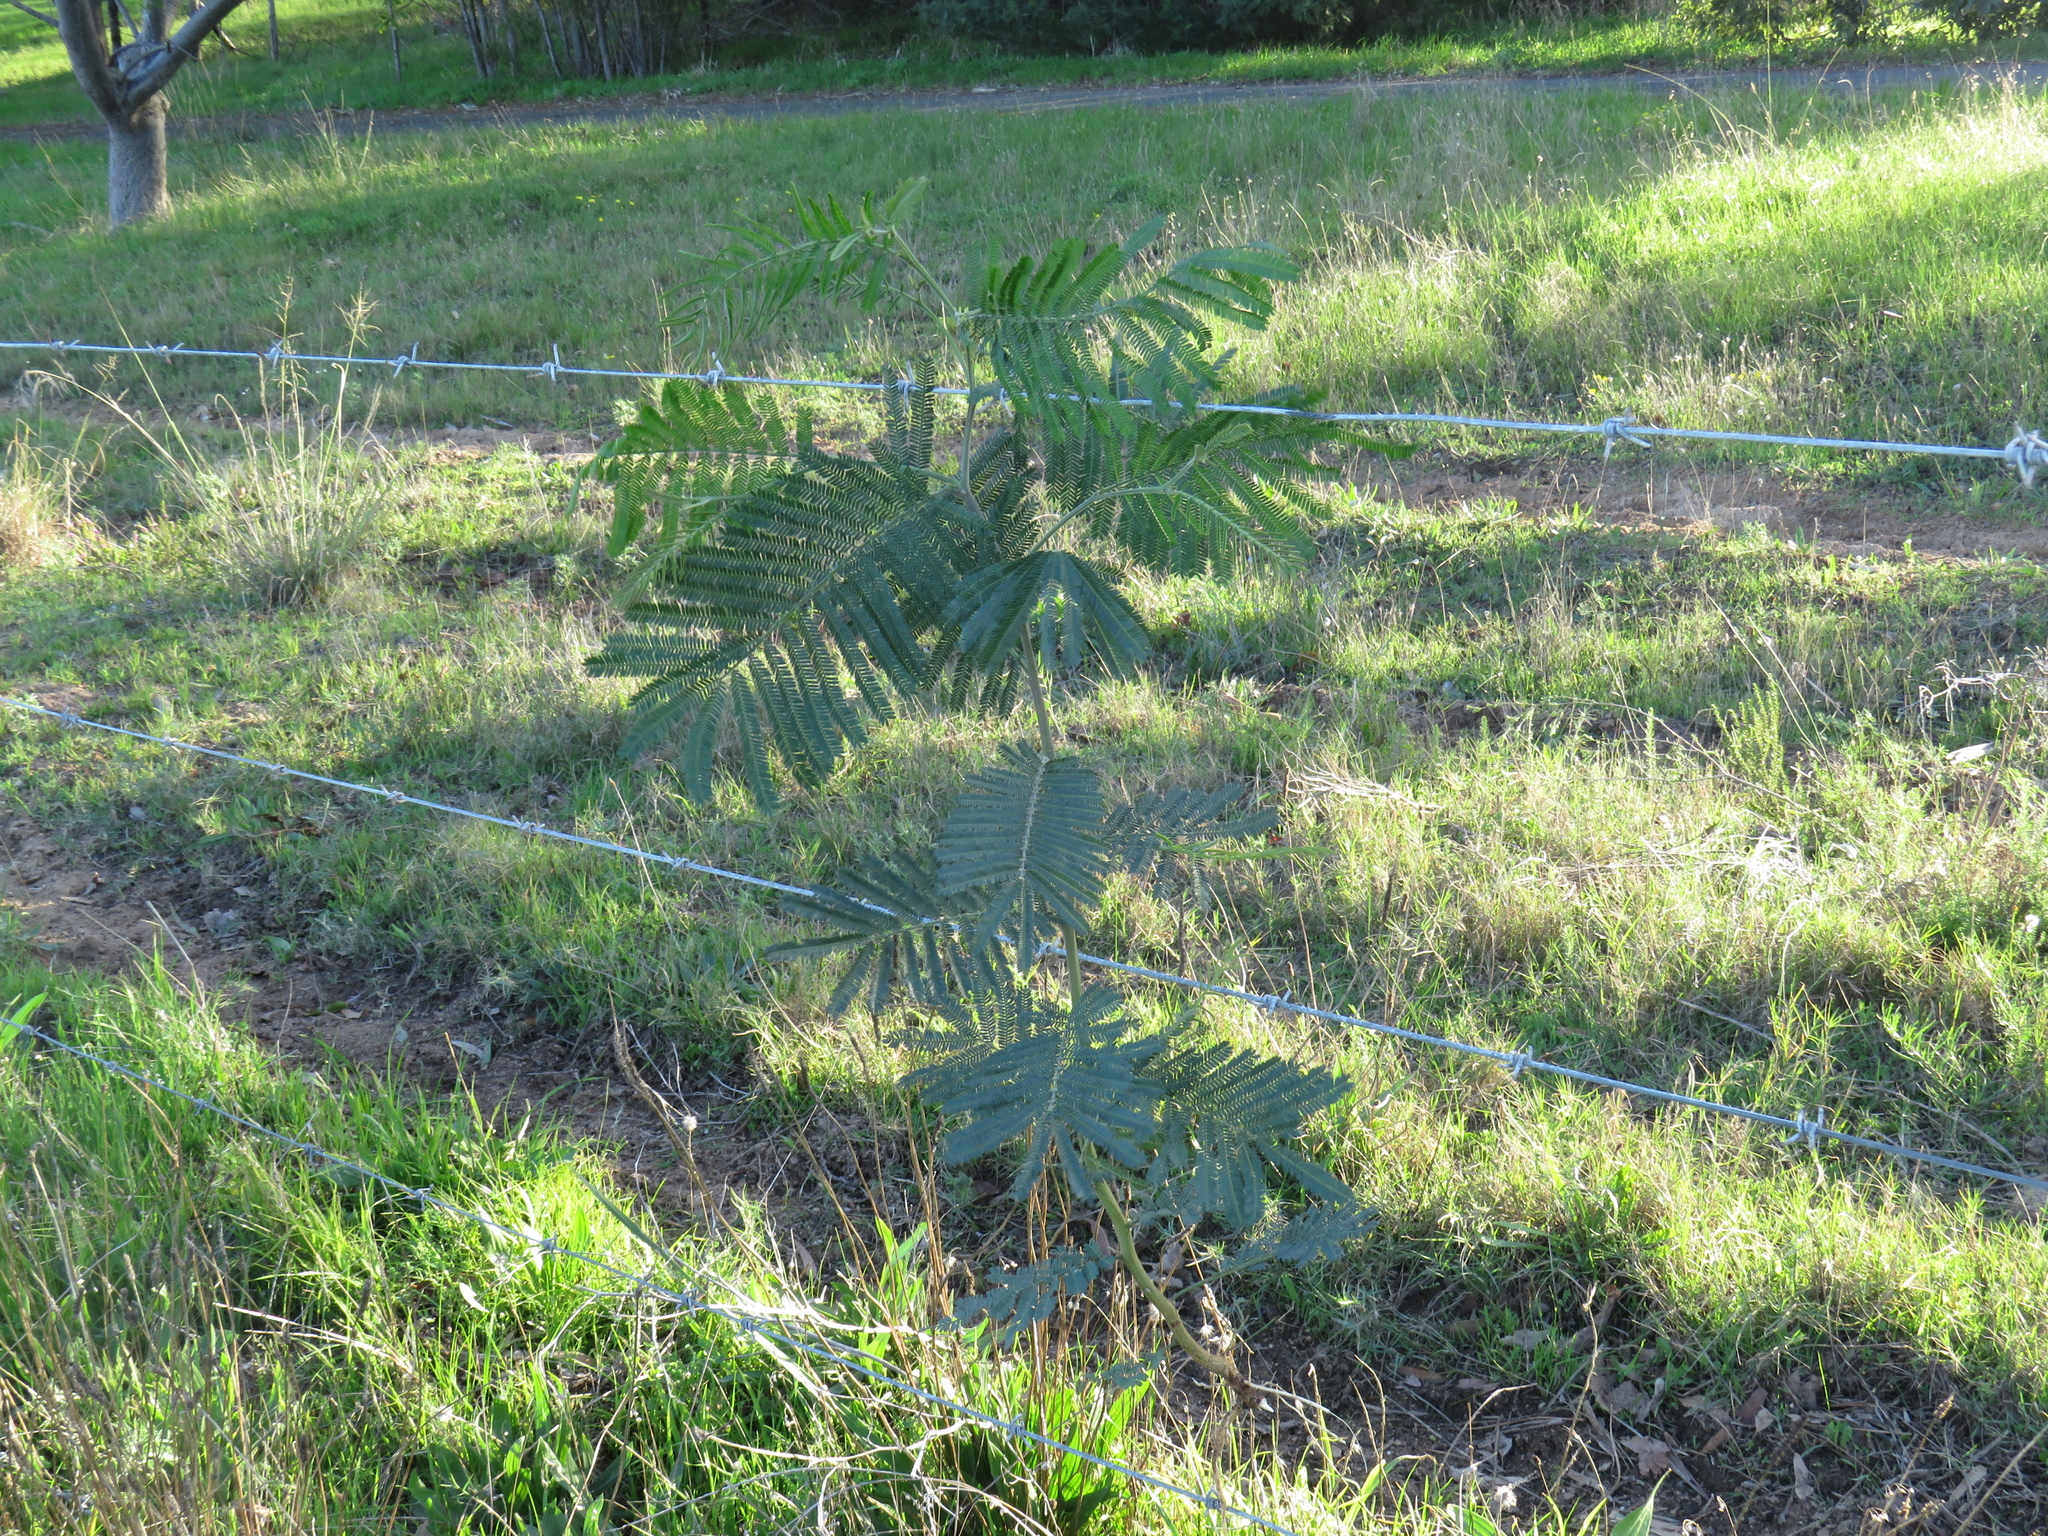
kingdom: Plantae
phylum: Tracheophyta
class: Magnoliopsida
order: Fabales
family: Fabaceae
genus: Acacia
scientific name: Acacia mearnsii
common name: Black wattle
